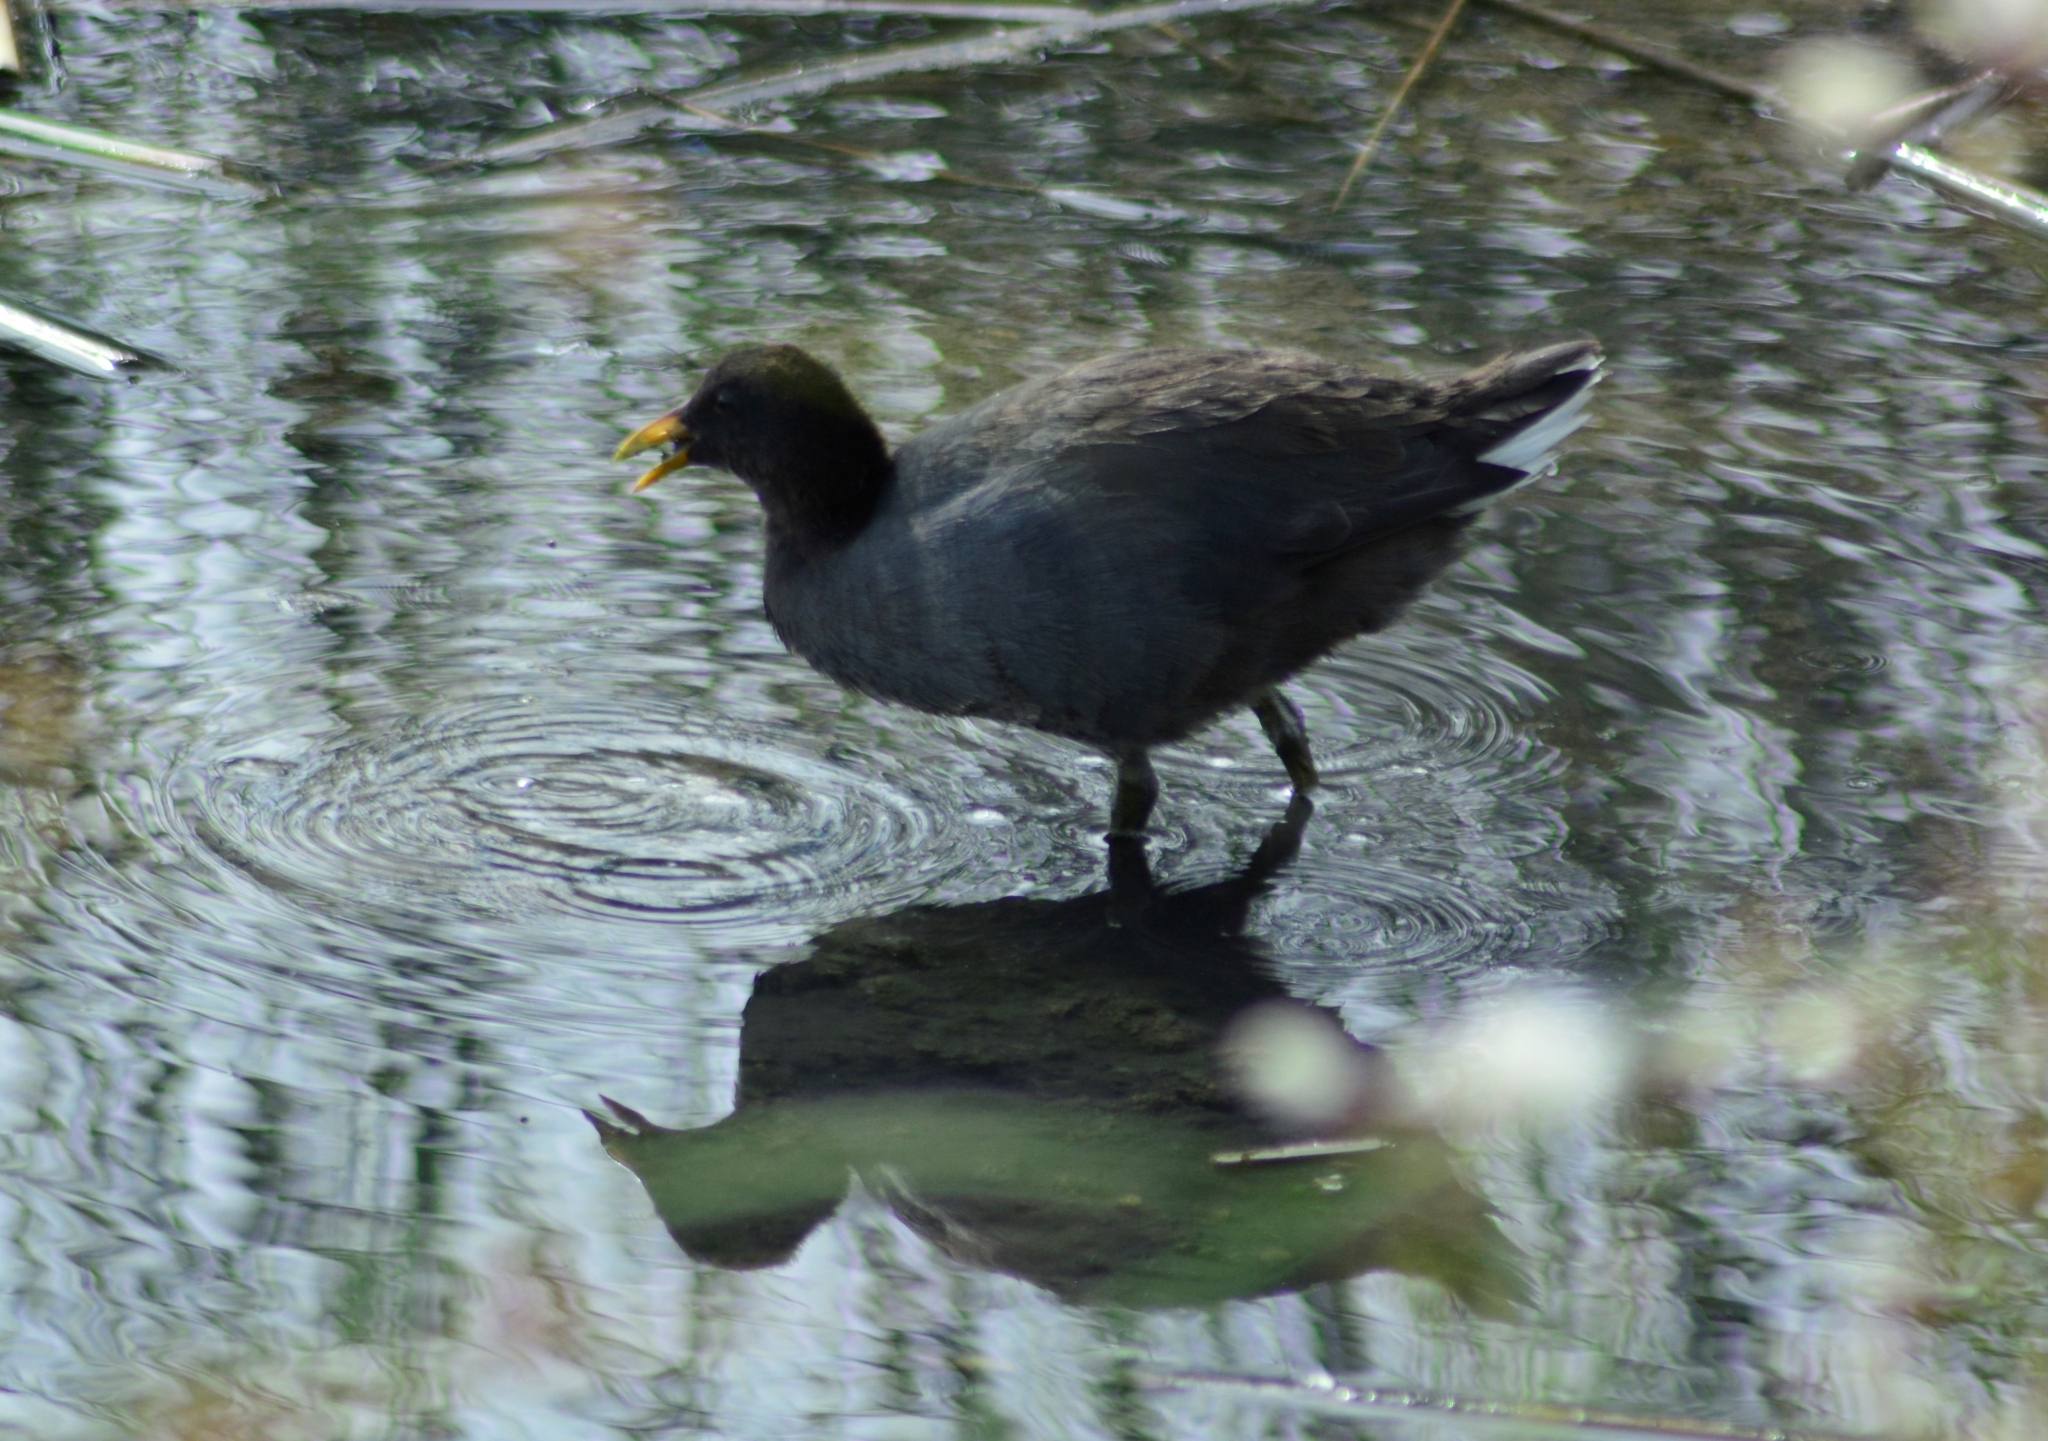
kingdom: Animalia
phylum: Chordata
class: Aves
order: Gruiformes
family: Rallidae
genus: Fulica
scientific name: Fulica rufifrons
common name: Red-fronted coot
